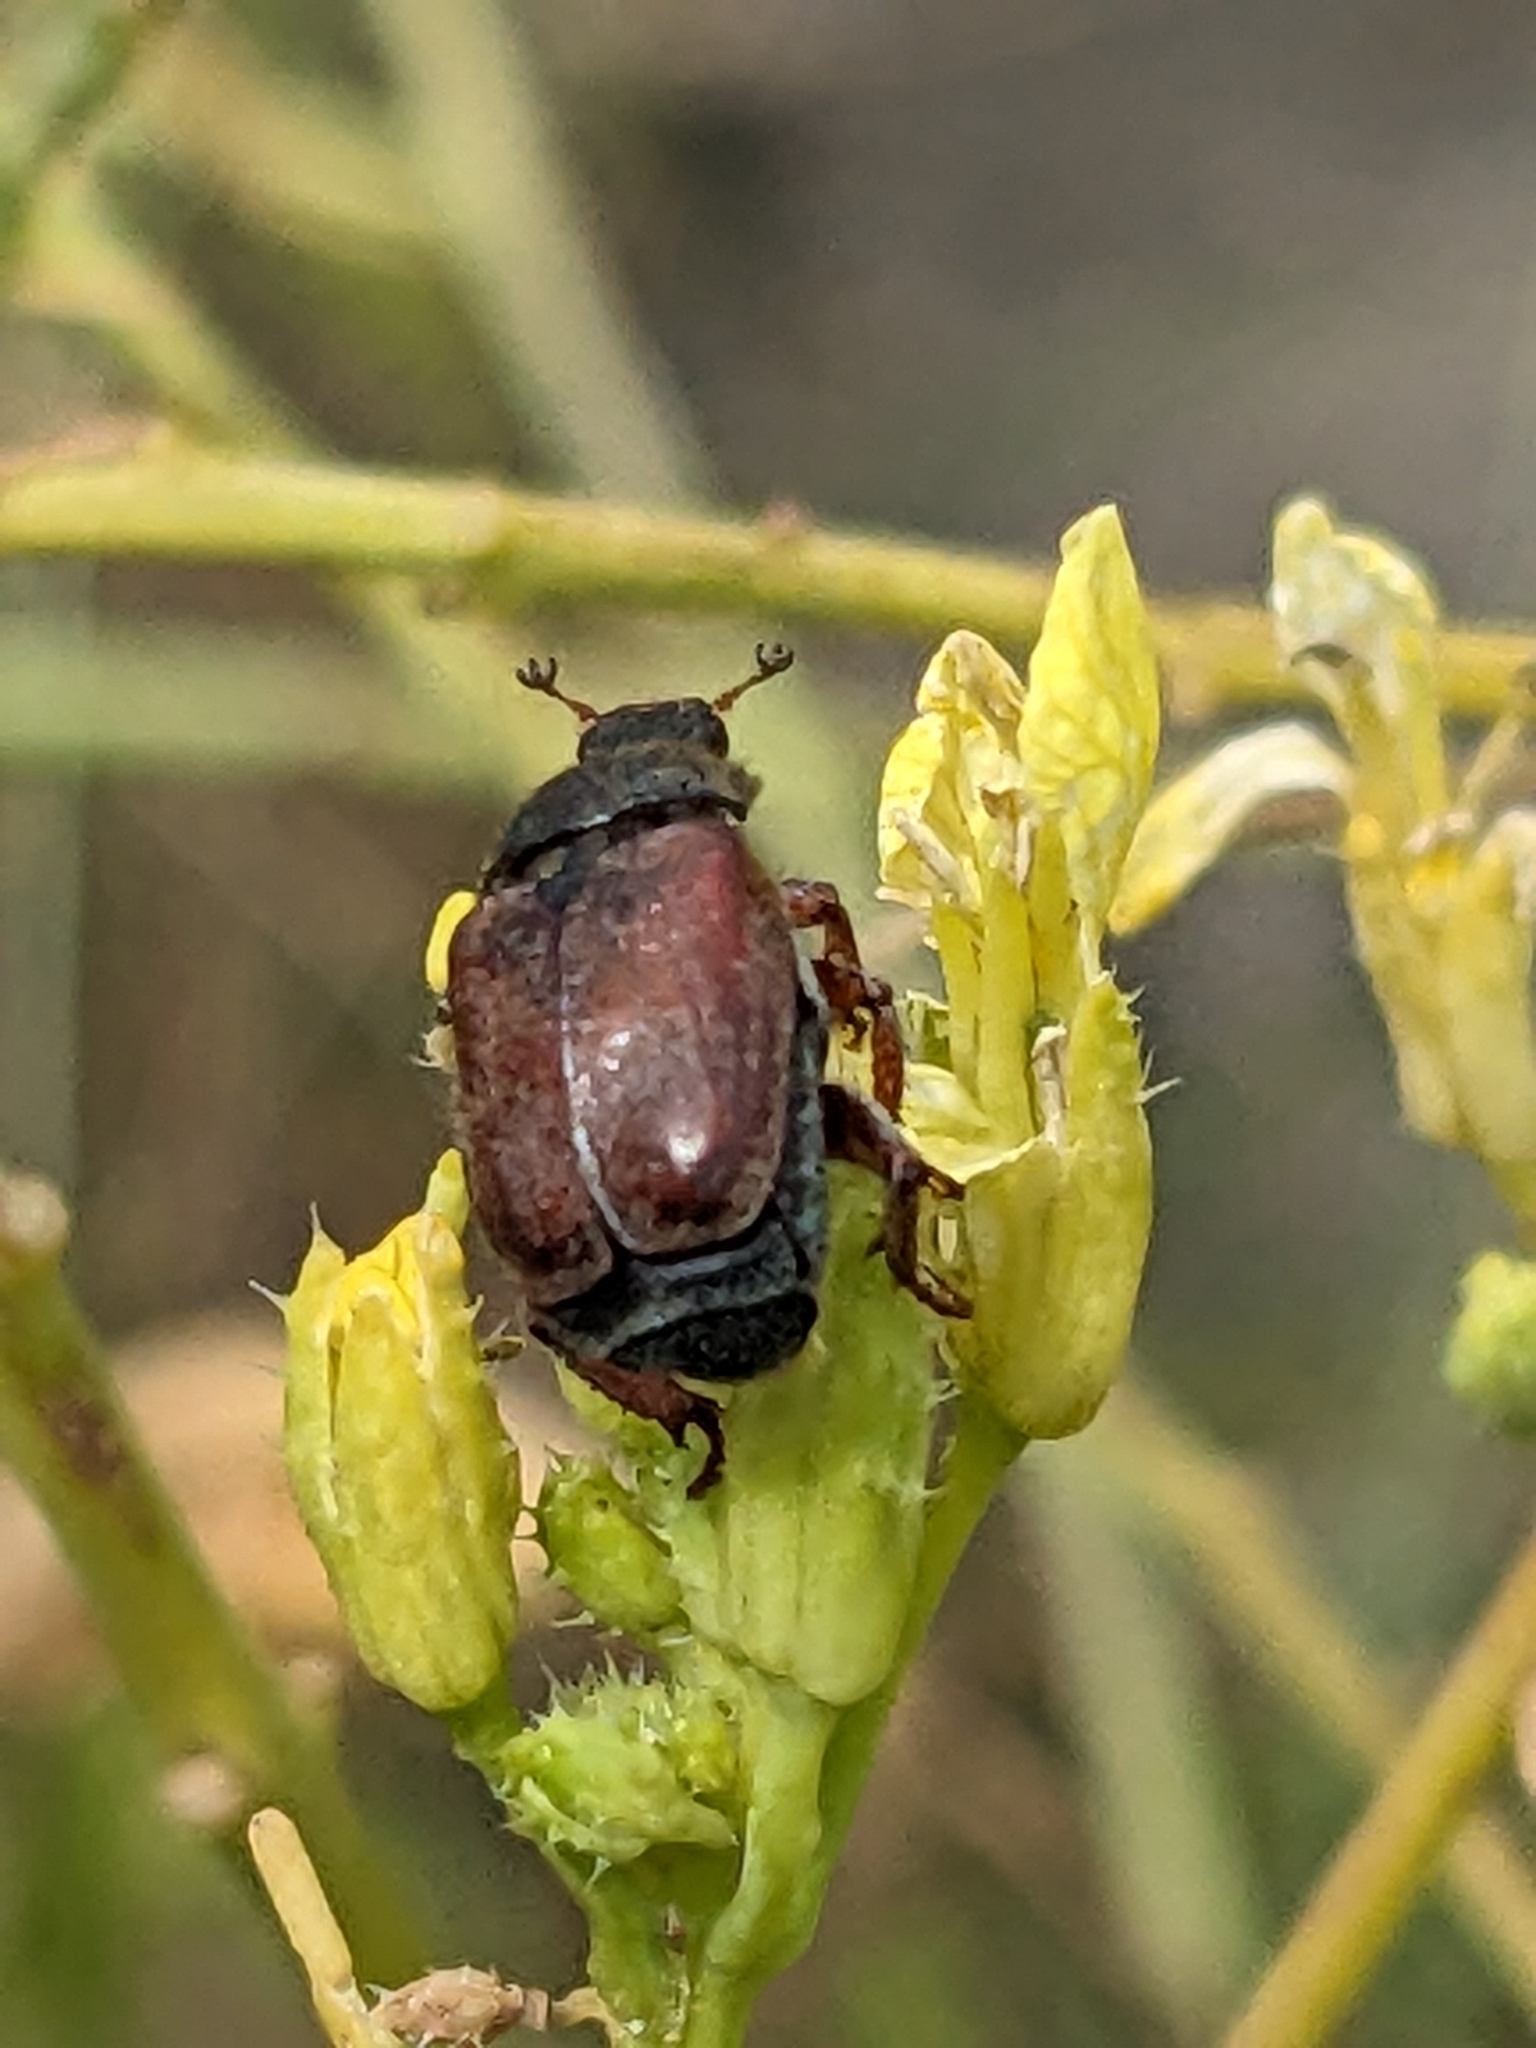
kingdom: Animalia
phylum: Arthropoda
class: Insecta
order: Coleoptera
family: Scarabaeidae
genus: Hoplia
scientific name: Hoplia philanthus
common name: Welsh chafer
